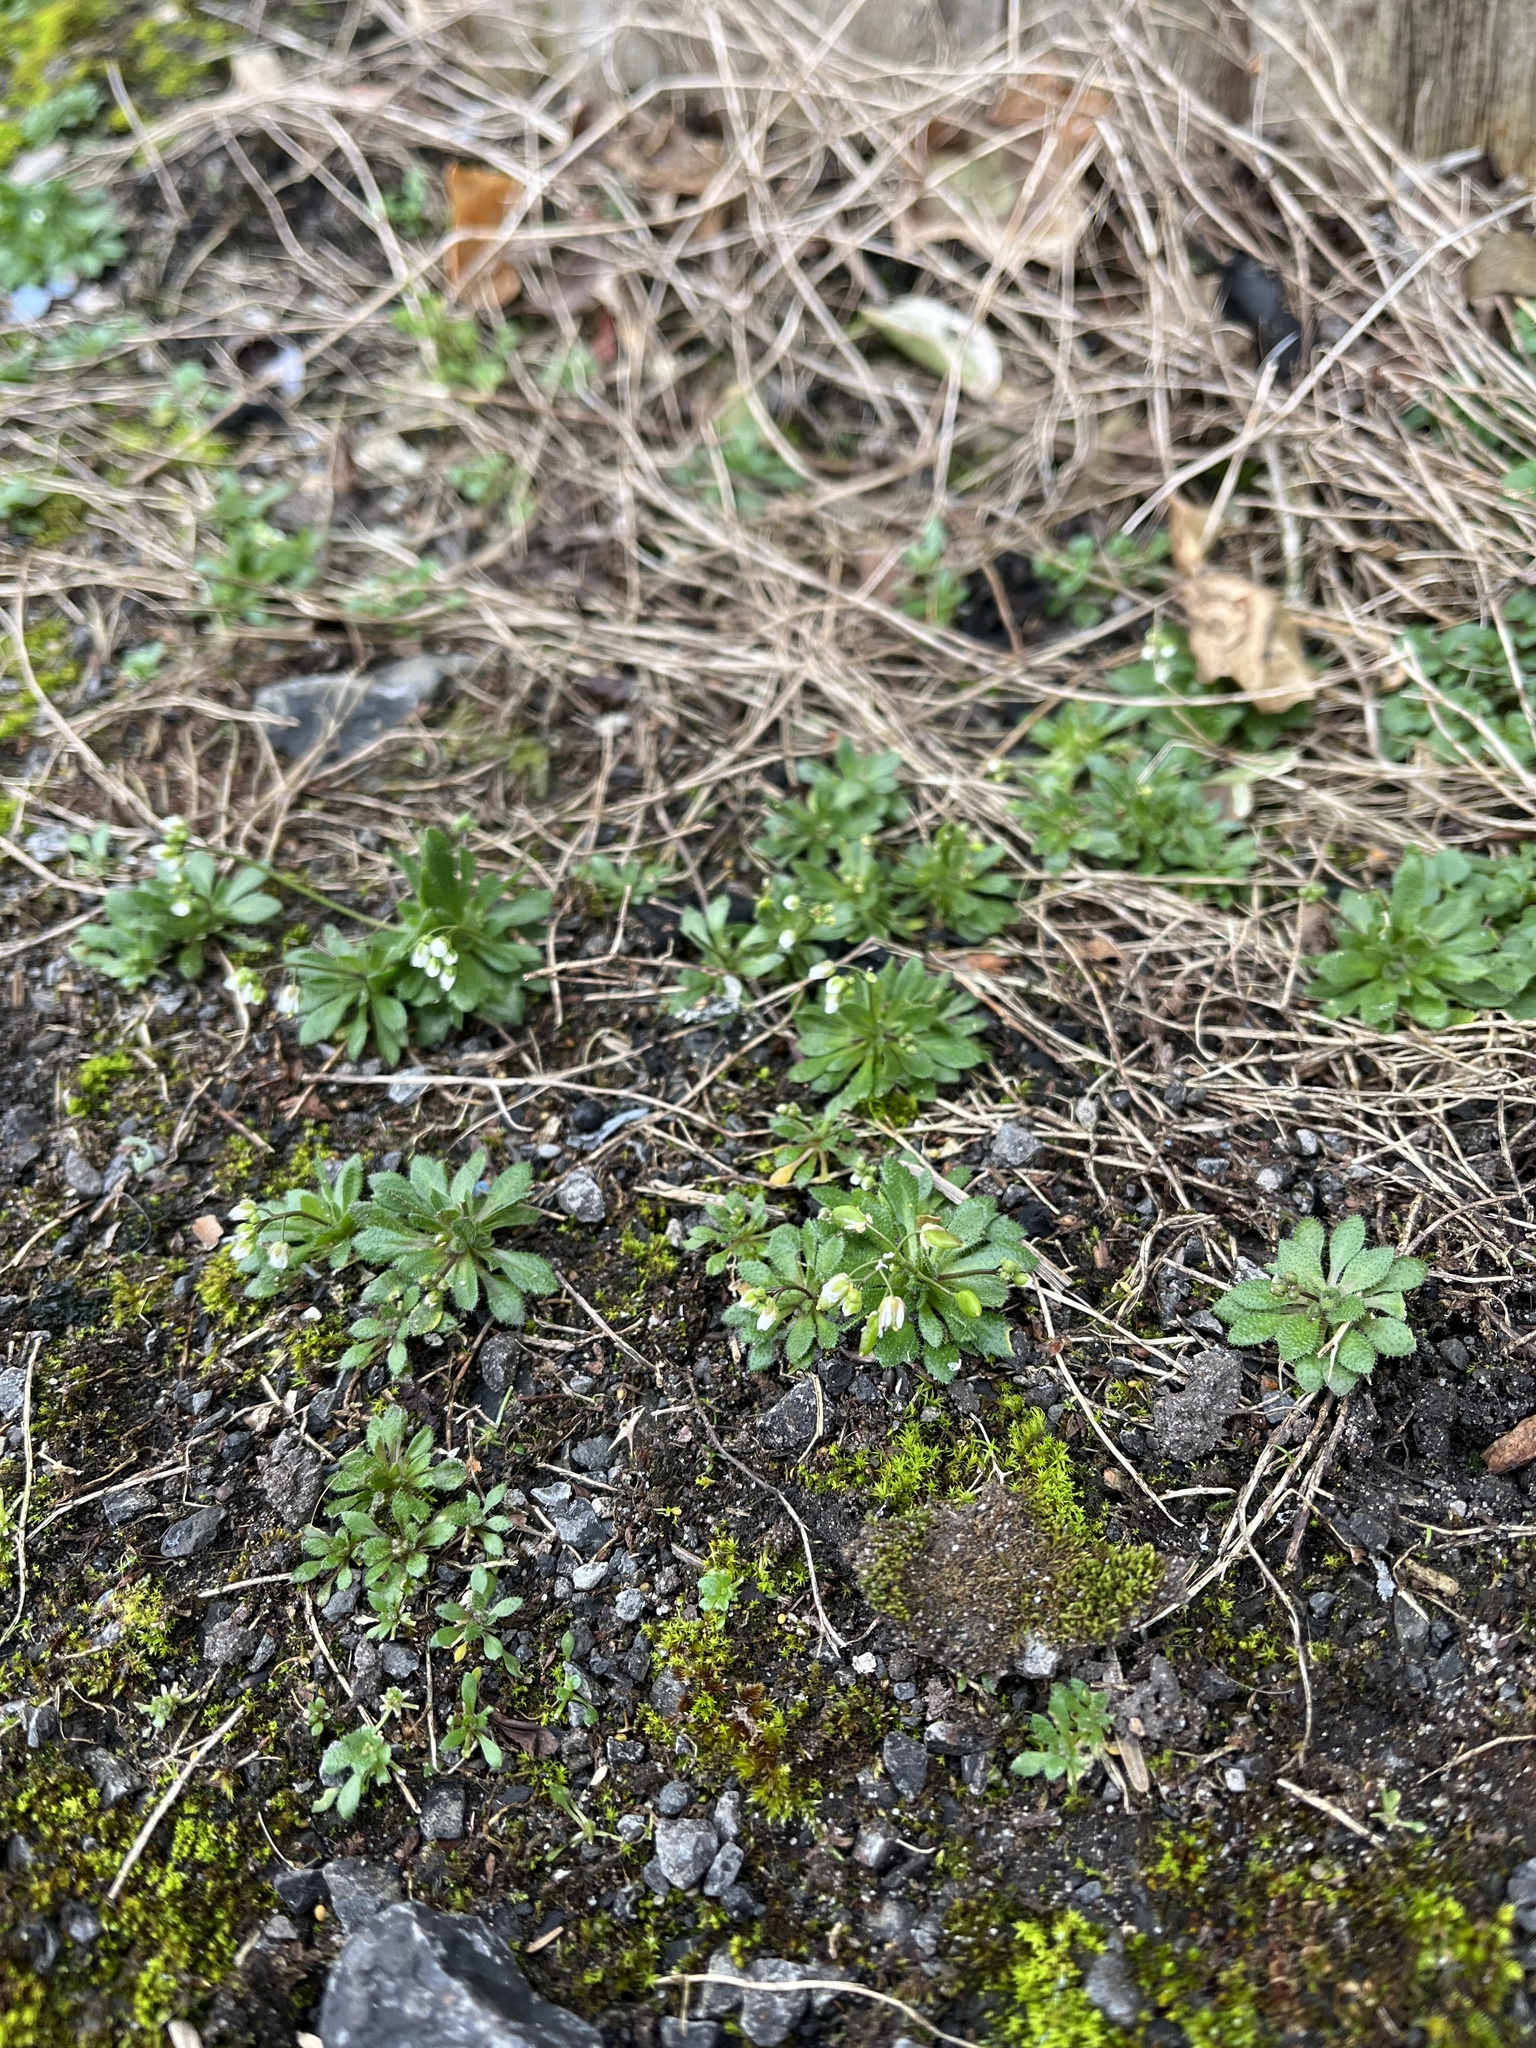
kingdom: Plantae
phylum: Tracheophyta
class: Magnoliopsida
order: Brassicales
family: Brassicaceae
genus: Draba
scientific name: Draba verna
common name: Spring draba
